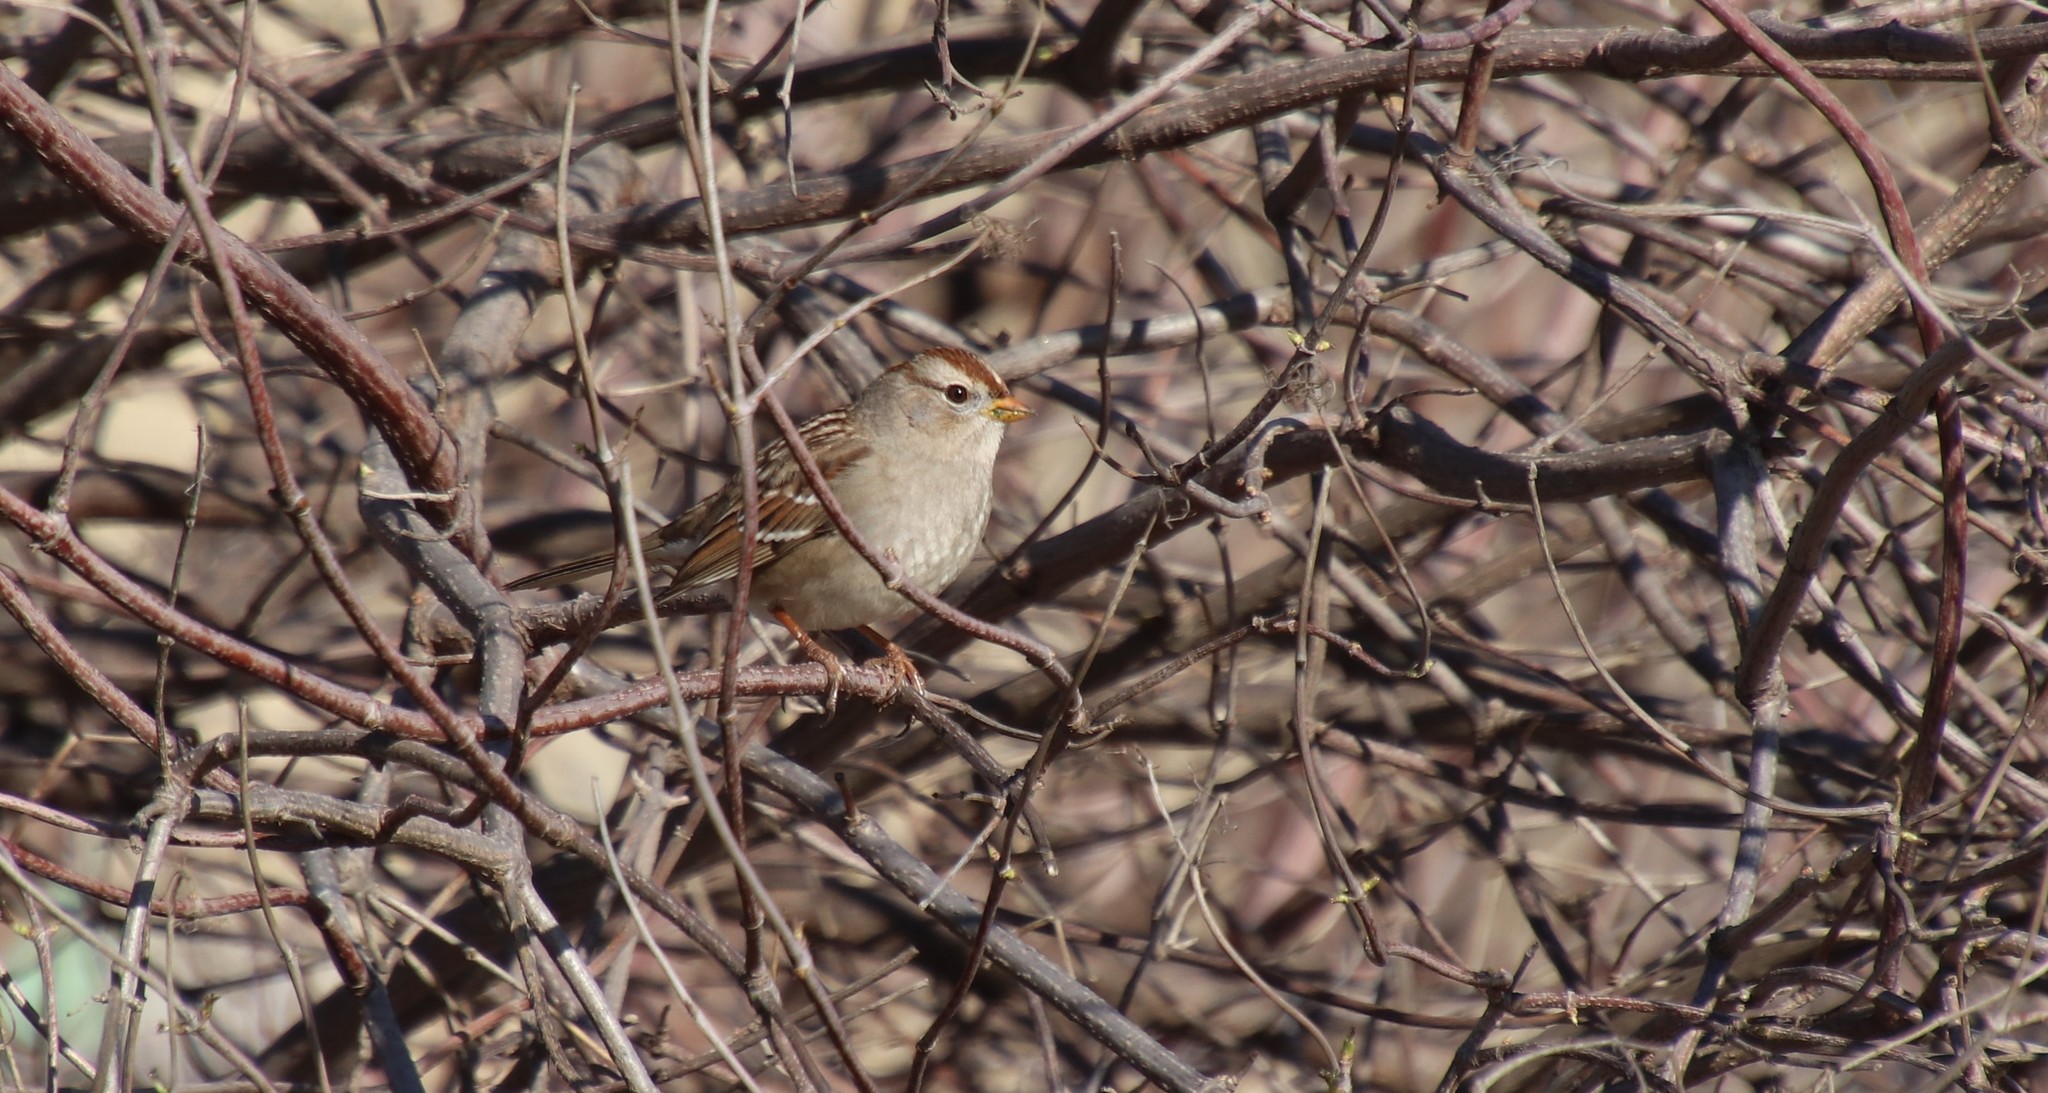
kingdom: Animalia
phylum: Chordata
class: Aves
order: Passeriformes
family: Passerellidae
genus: Zonotrichia
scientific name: Zonotrichia leucophrys
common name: White-crowned sparrow
